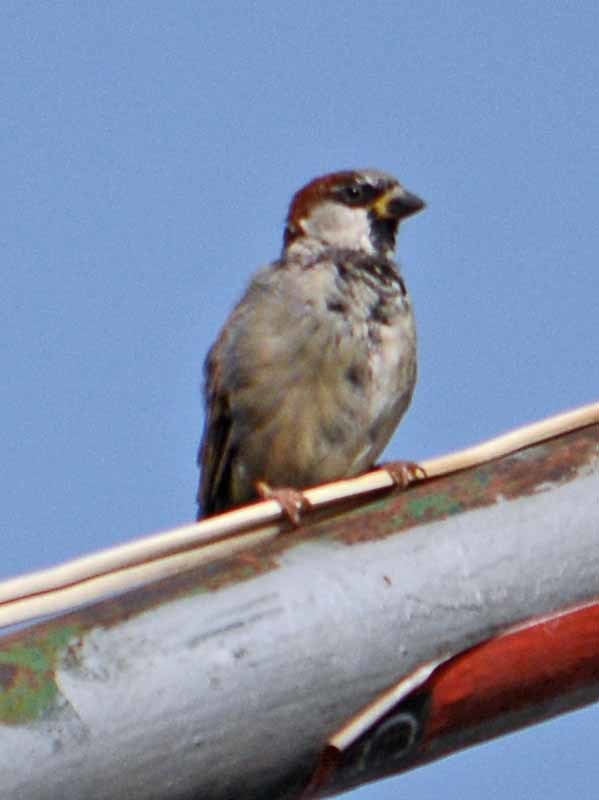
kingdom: Animalia
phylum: Chordata
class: Aves
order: Passeriformes
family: Passeridae
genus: Passer
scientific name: Passer domesticus
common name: House sparrow
